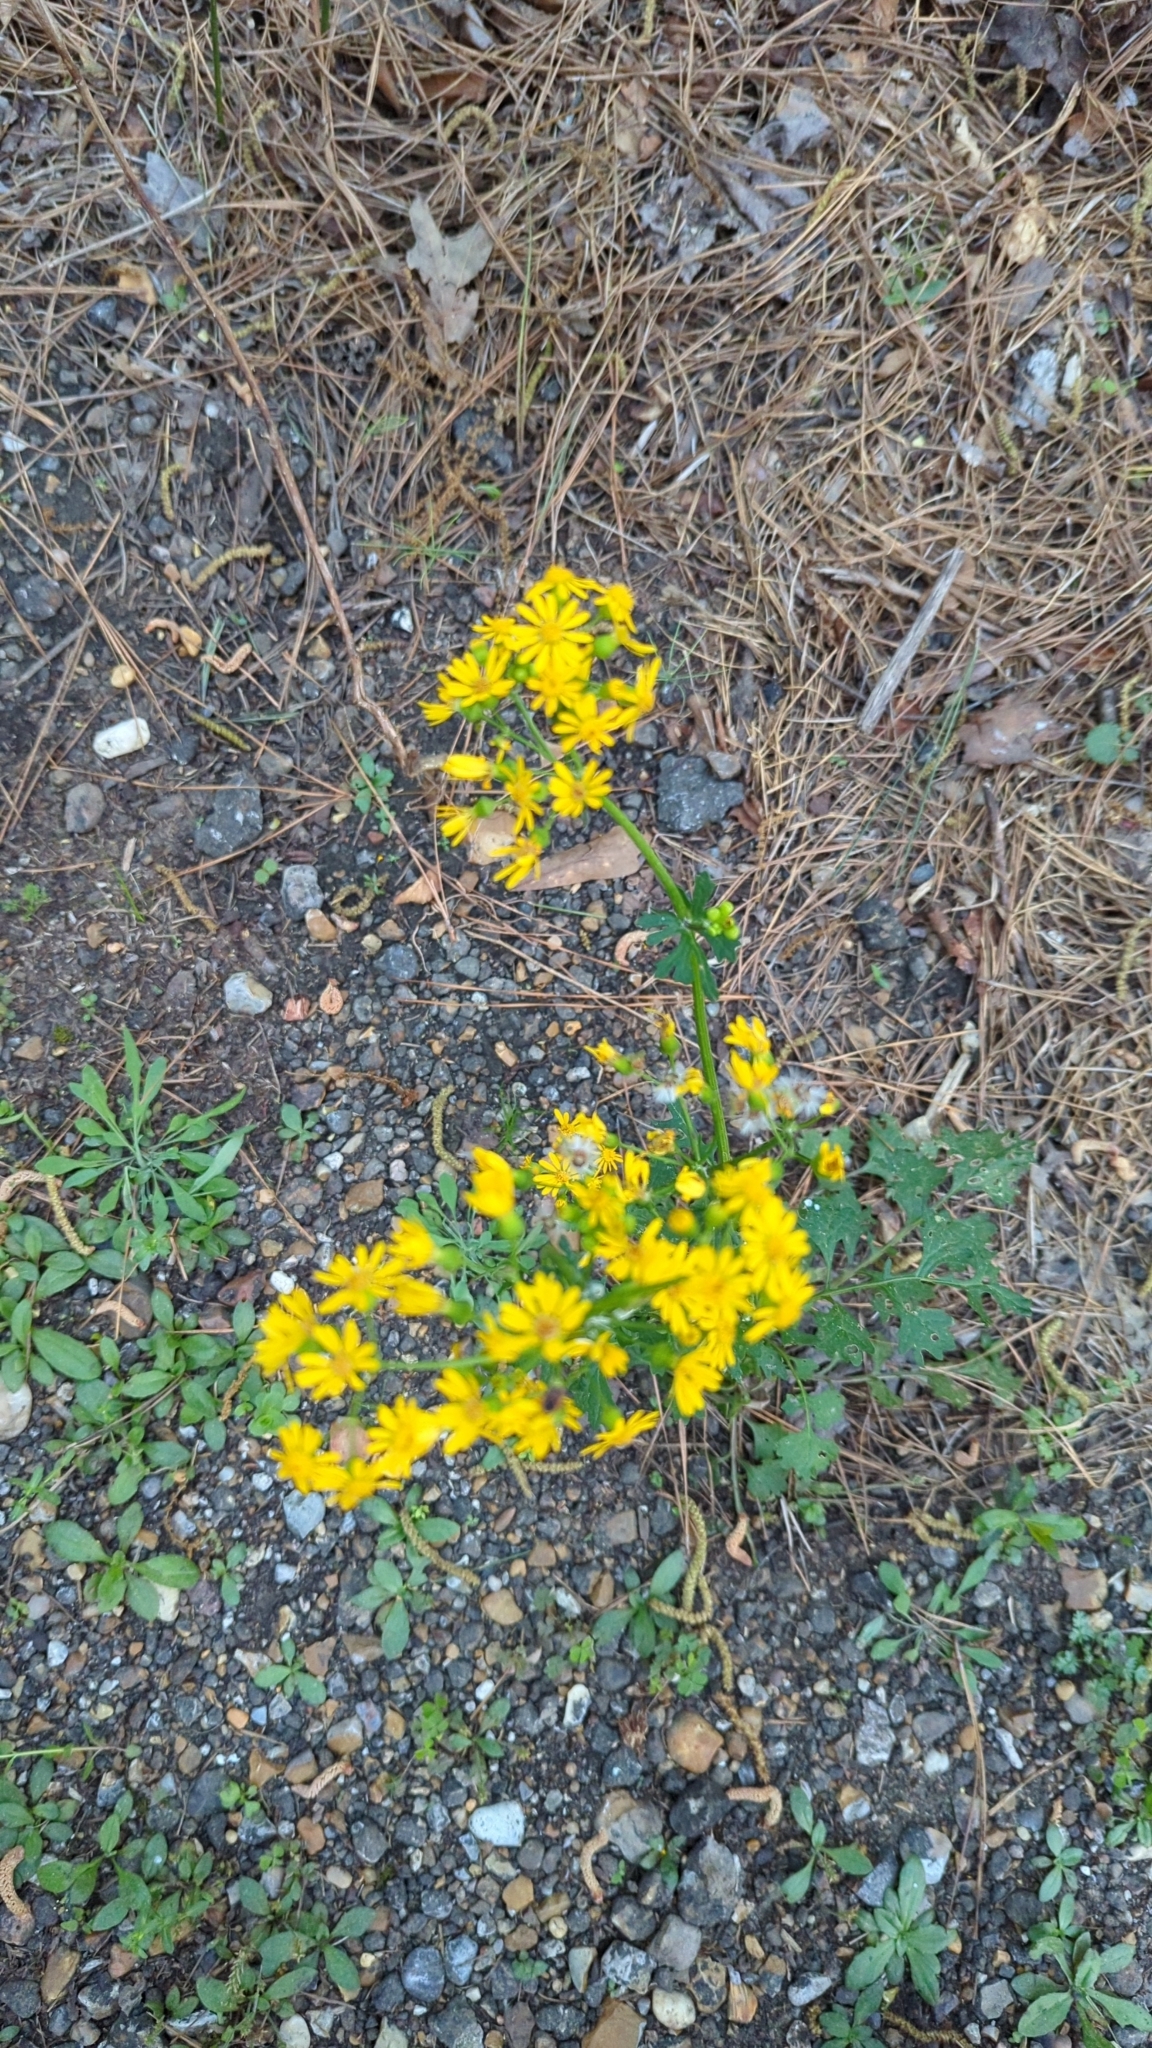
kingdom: Plantae
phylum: Tracheophyta
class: Magnoliopsida
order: Asterales
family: Asteraceae
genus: Packera
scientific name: Packera glabella
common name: Butterweed
